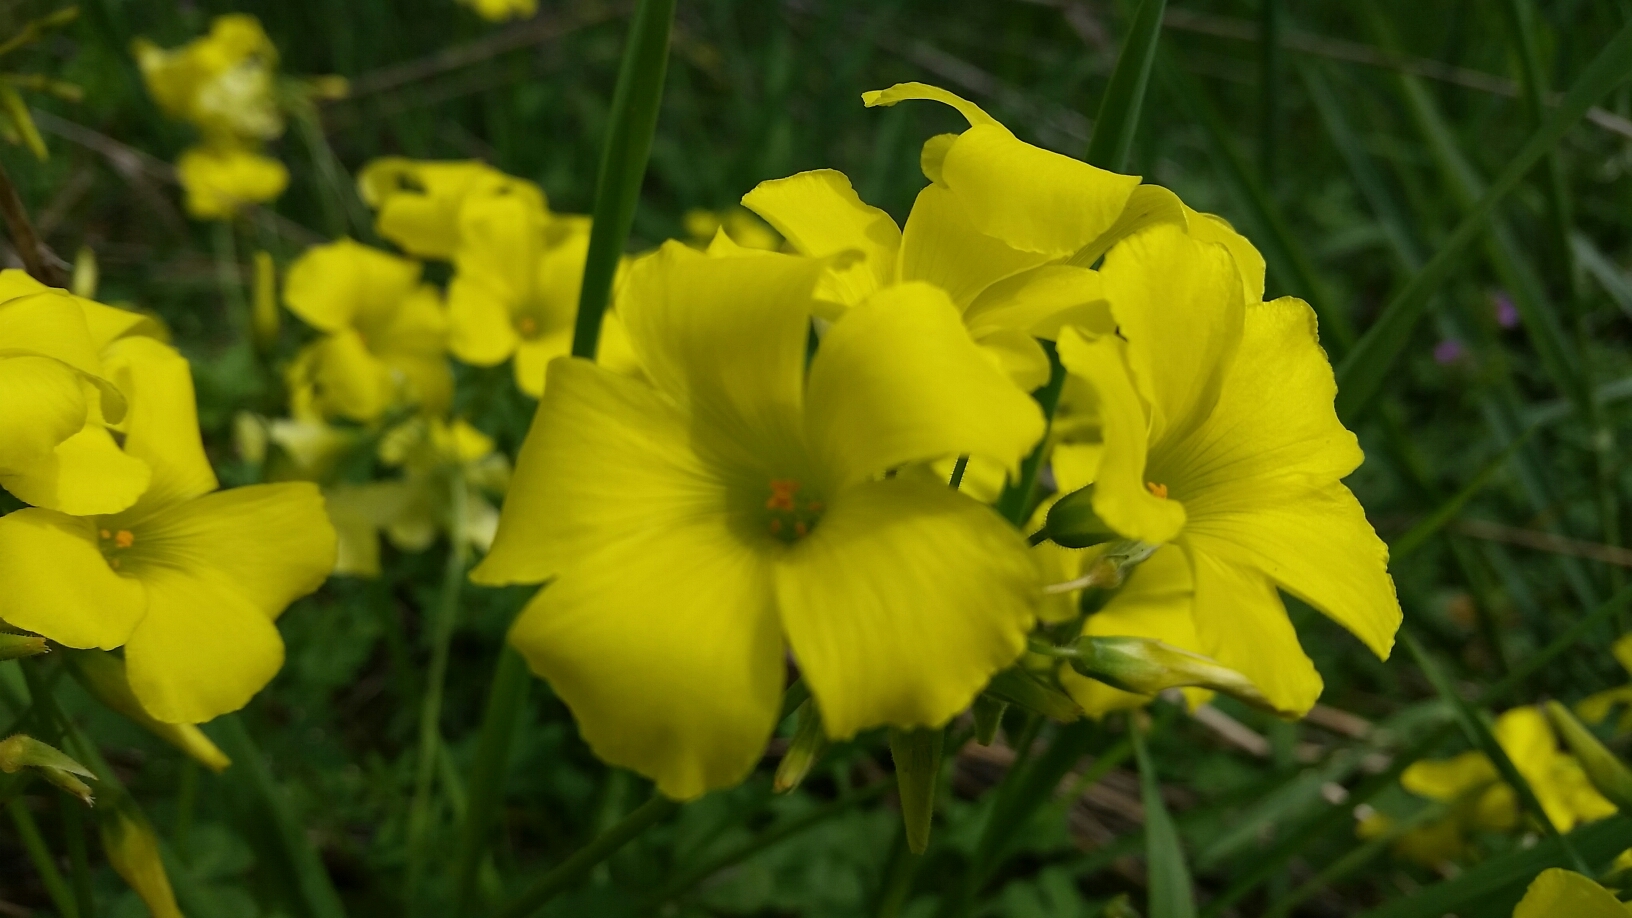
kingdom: Plantae
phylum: Tracheophyta
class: Magnoliopsida
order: Oxalidales
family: Oxalidaceae
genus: Oxalis
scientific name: Oxalis pes-caprae
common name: Bermuda-buttercup
